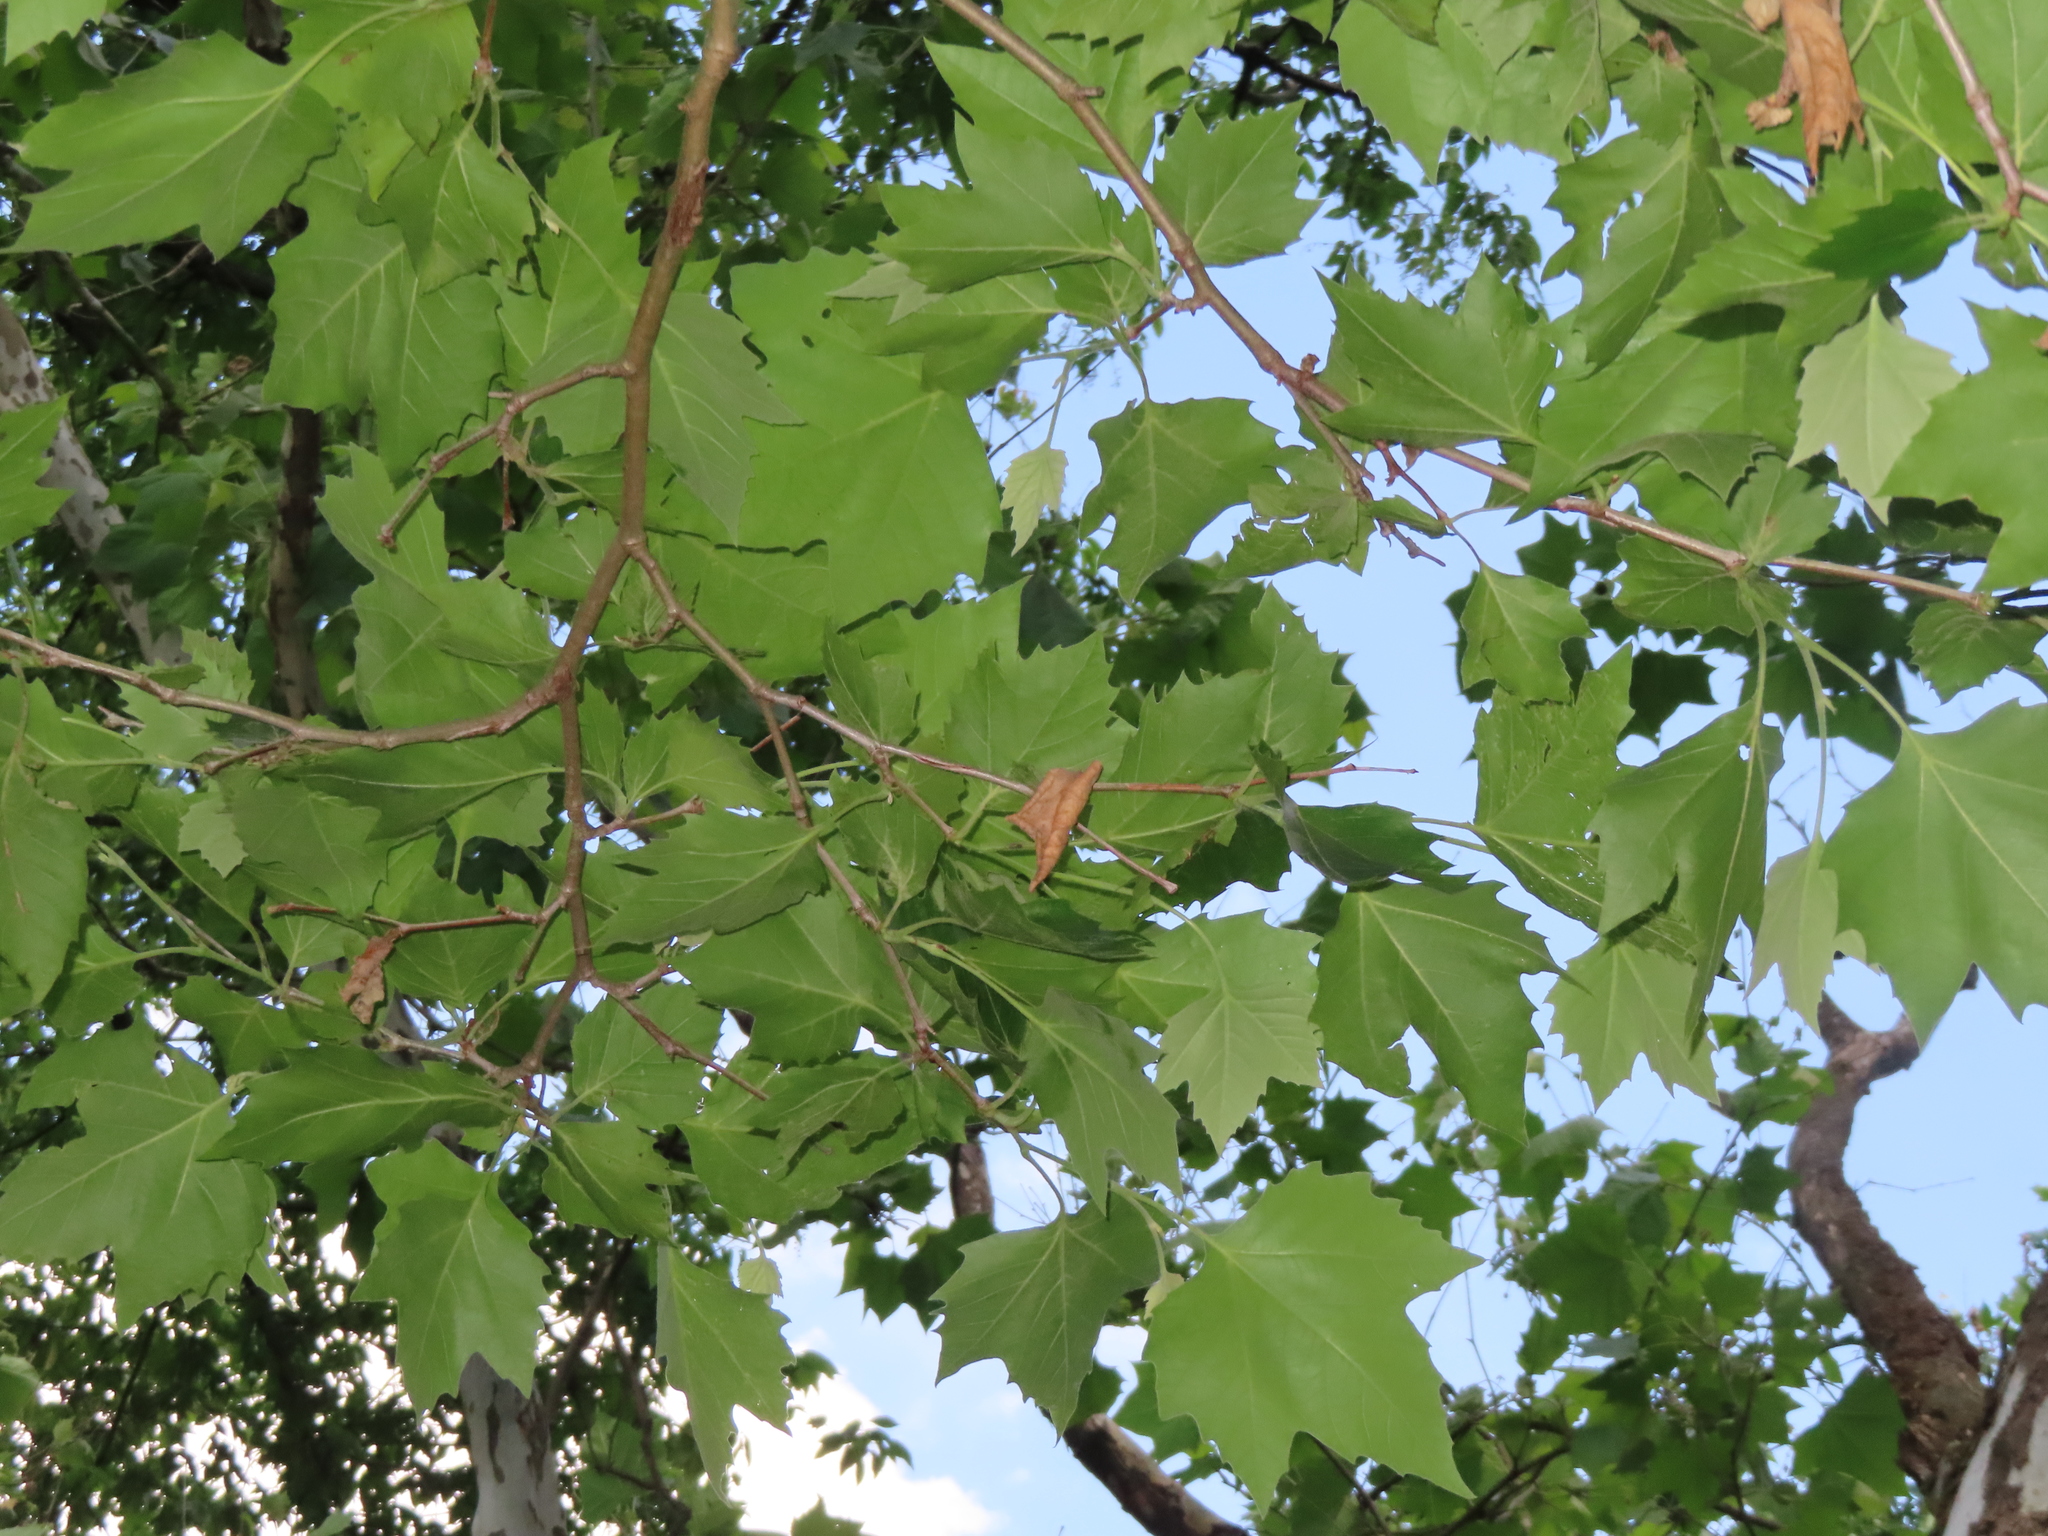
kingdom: Plantae
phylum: Tracheophyta
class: Magnoliopsida
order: Proteales
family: Platanaceae
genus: Platanus
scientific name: Platanus hispanica
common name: London plane
